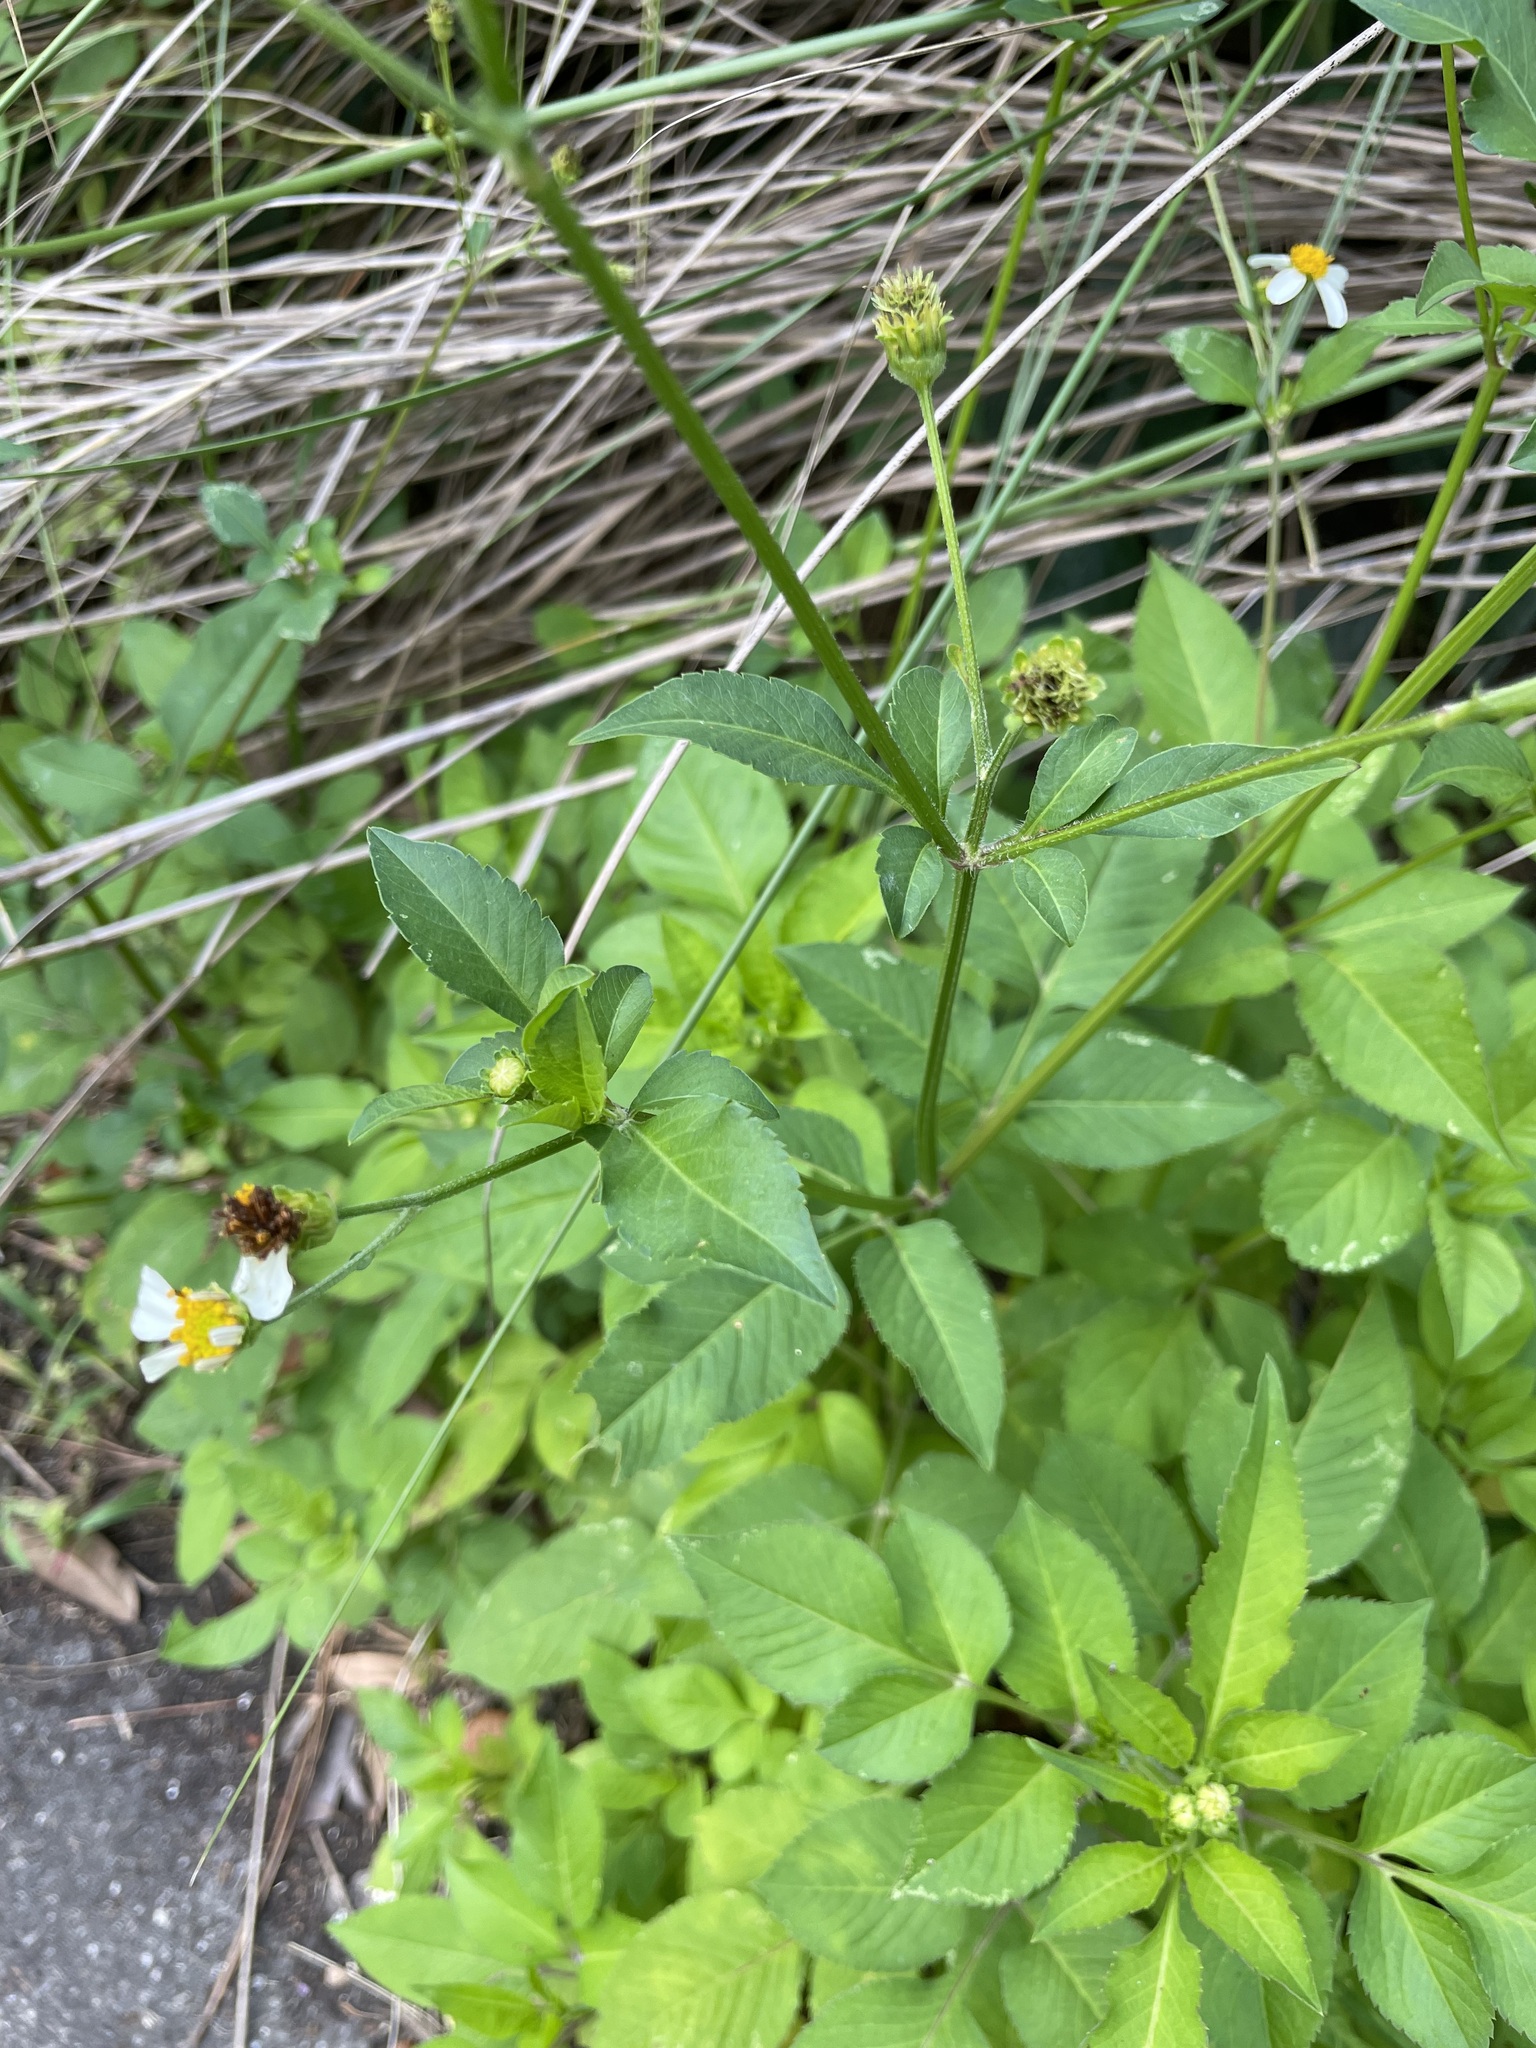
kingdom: Plantae
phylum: Tracheophyta
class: Magnoliopsida
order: Asterales
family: Asteraceae
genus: Bidens
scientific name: Bidens alba
